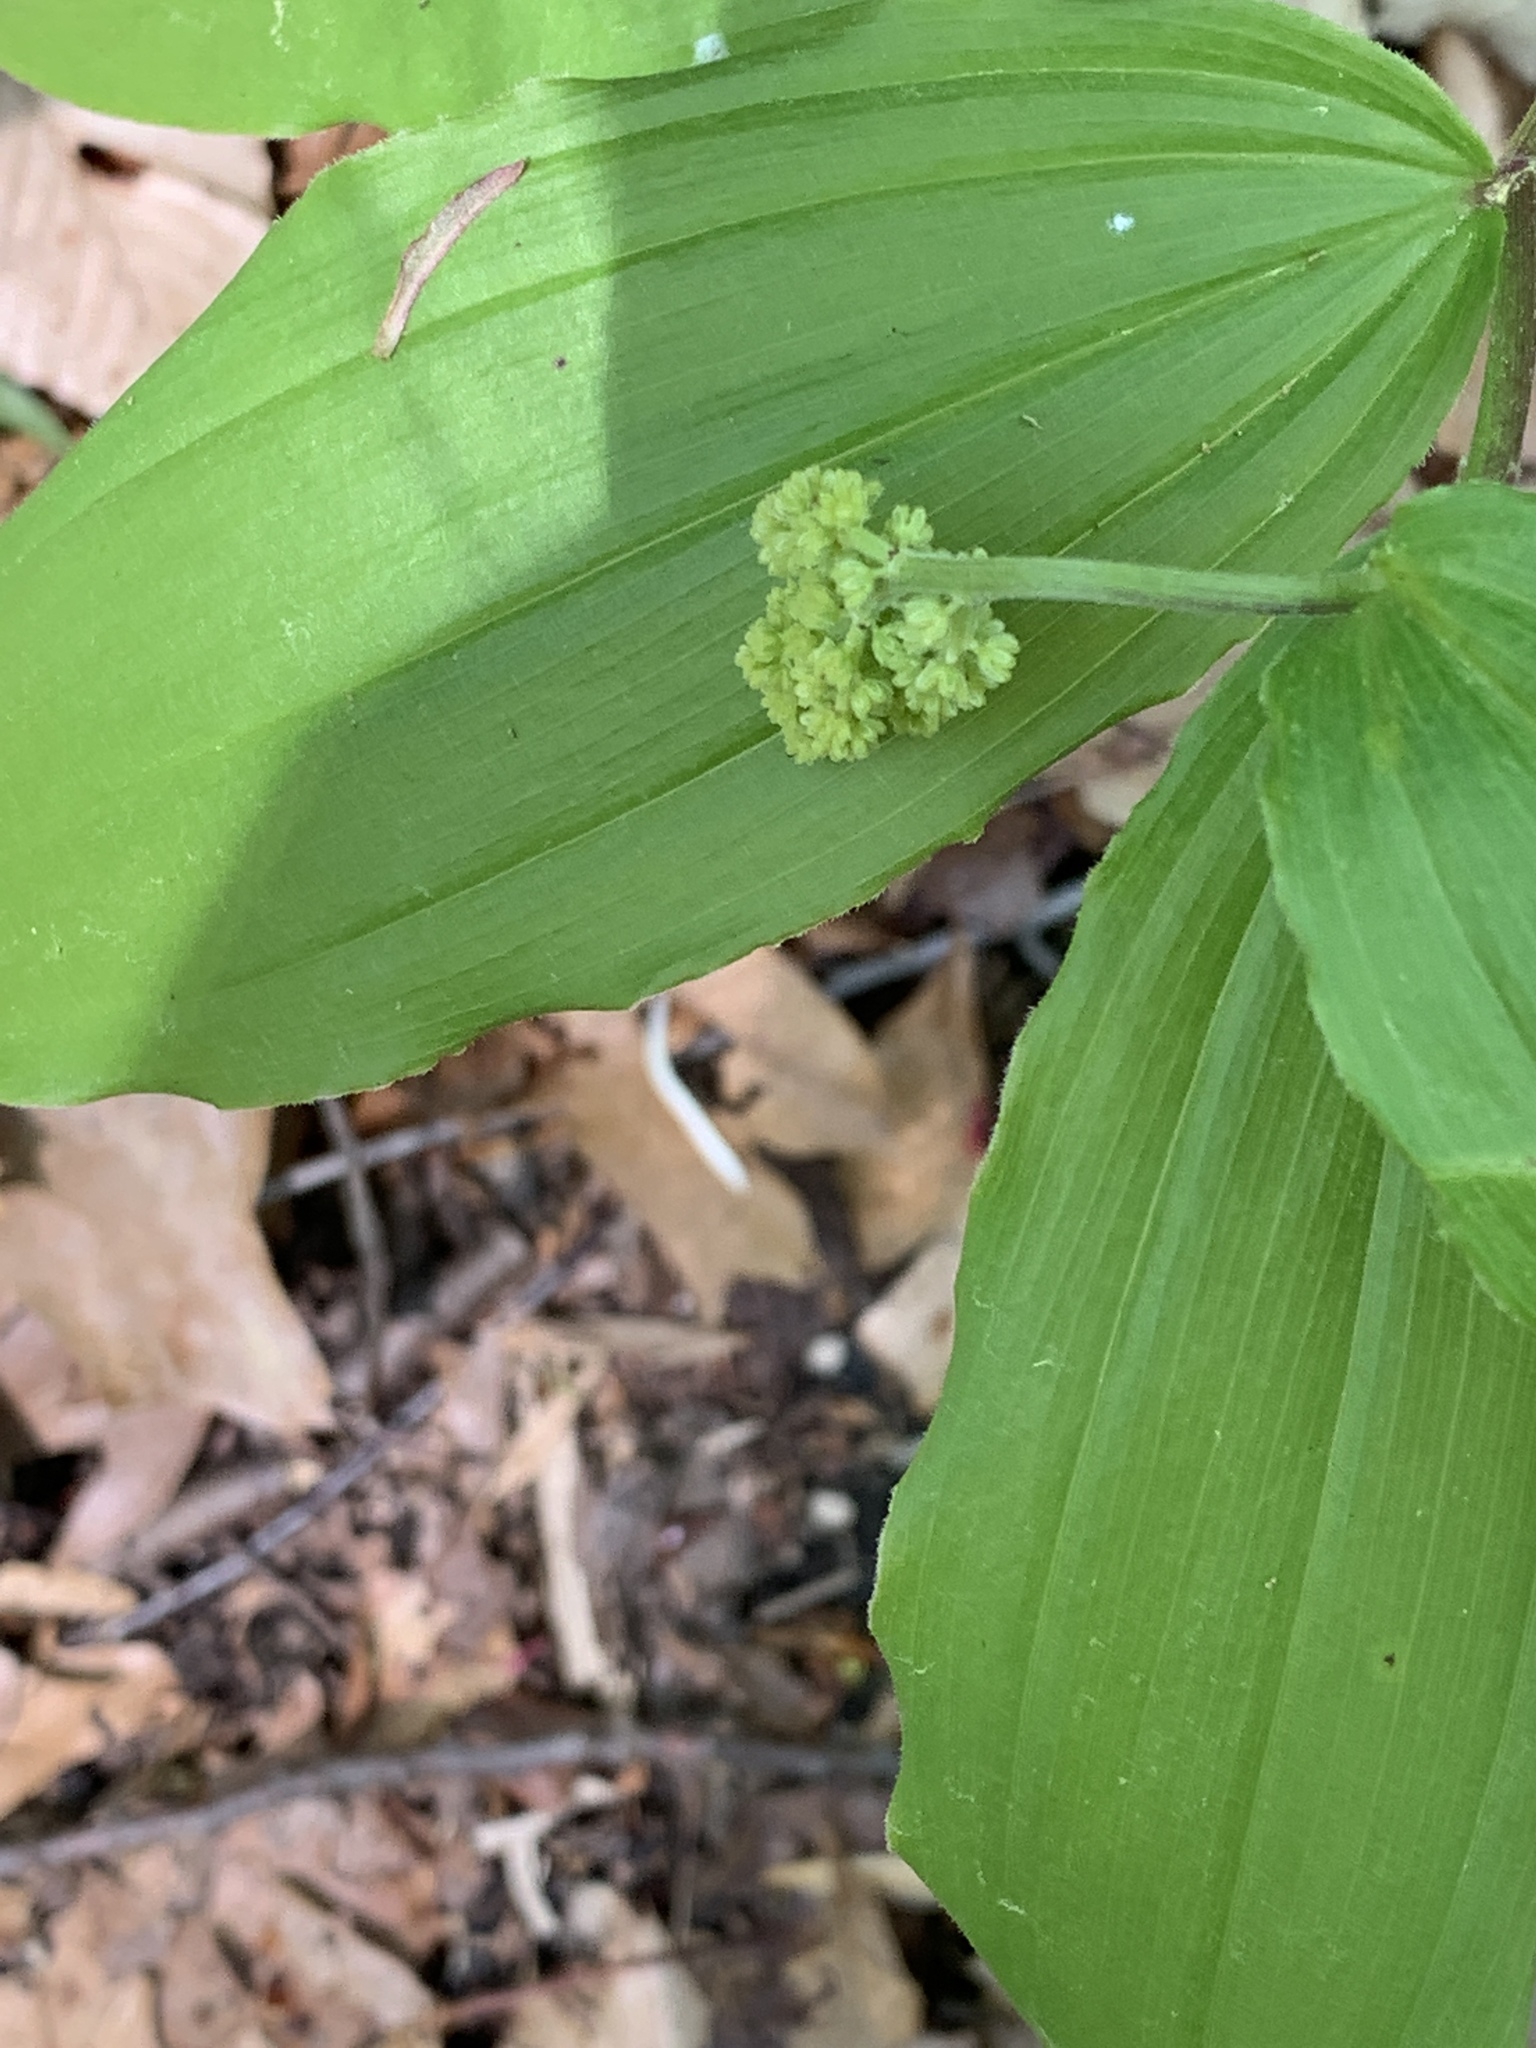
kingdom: Plantae
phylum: Tracheophyta
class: Liliopsida
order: Asparagales
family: Asparagaceae
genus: Maianthemum
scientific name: Maianthemum racemosum
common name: False spikenard
